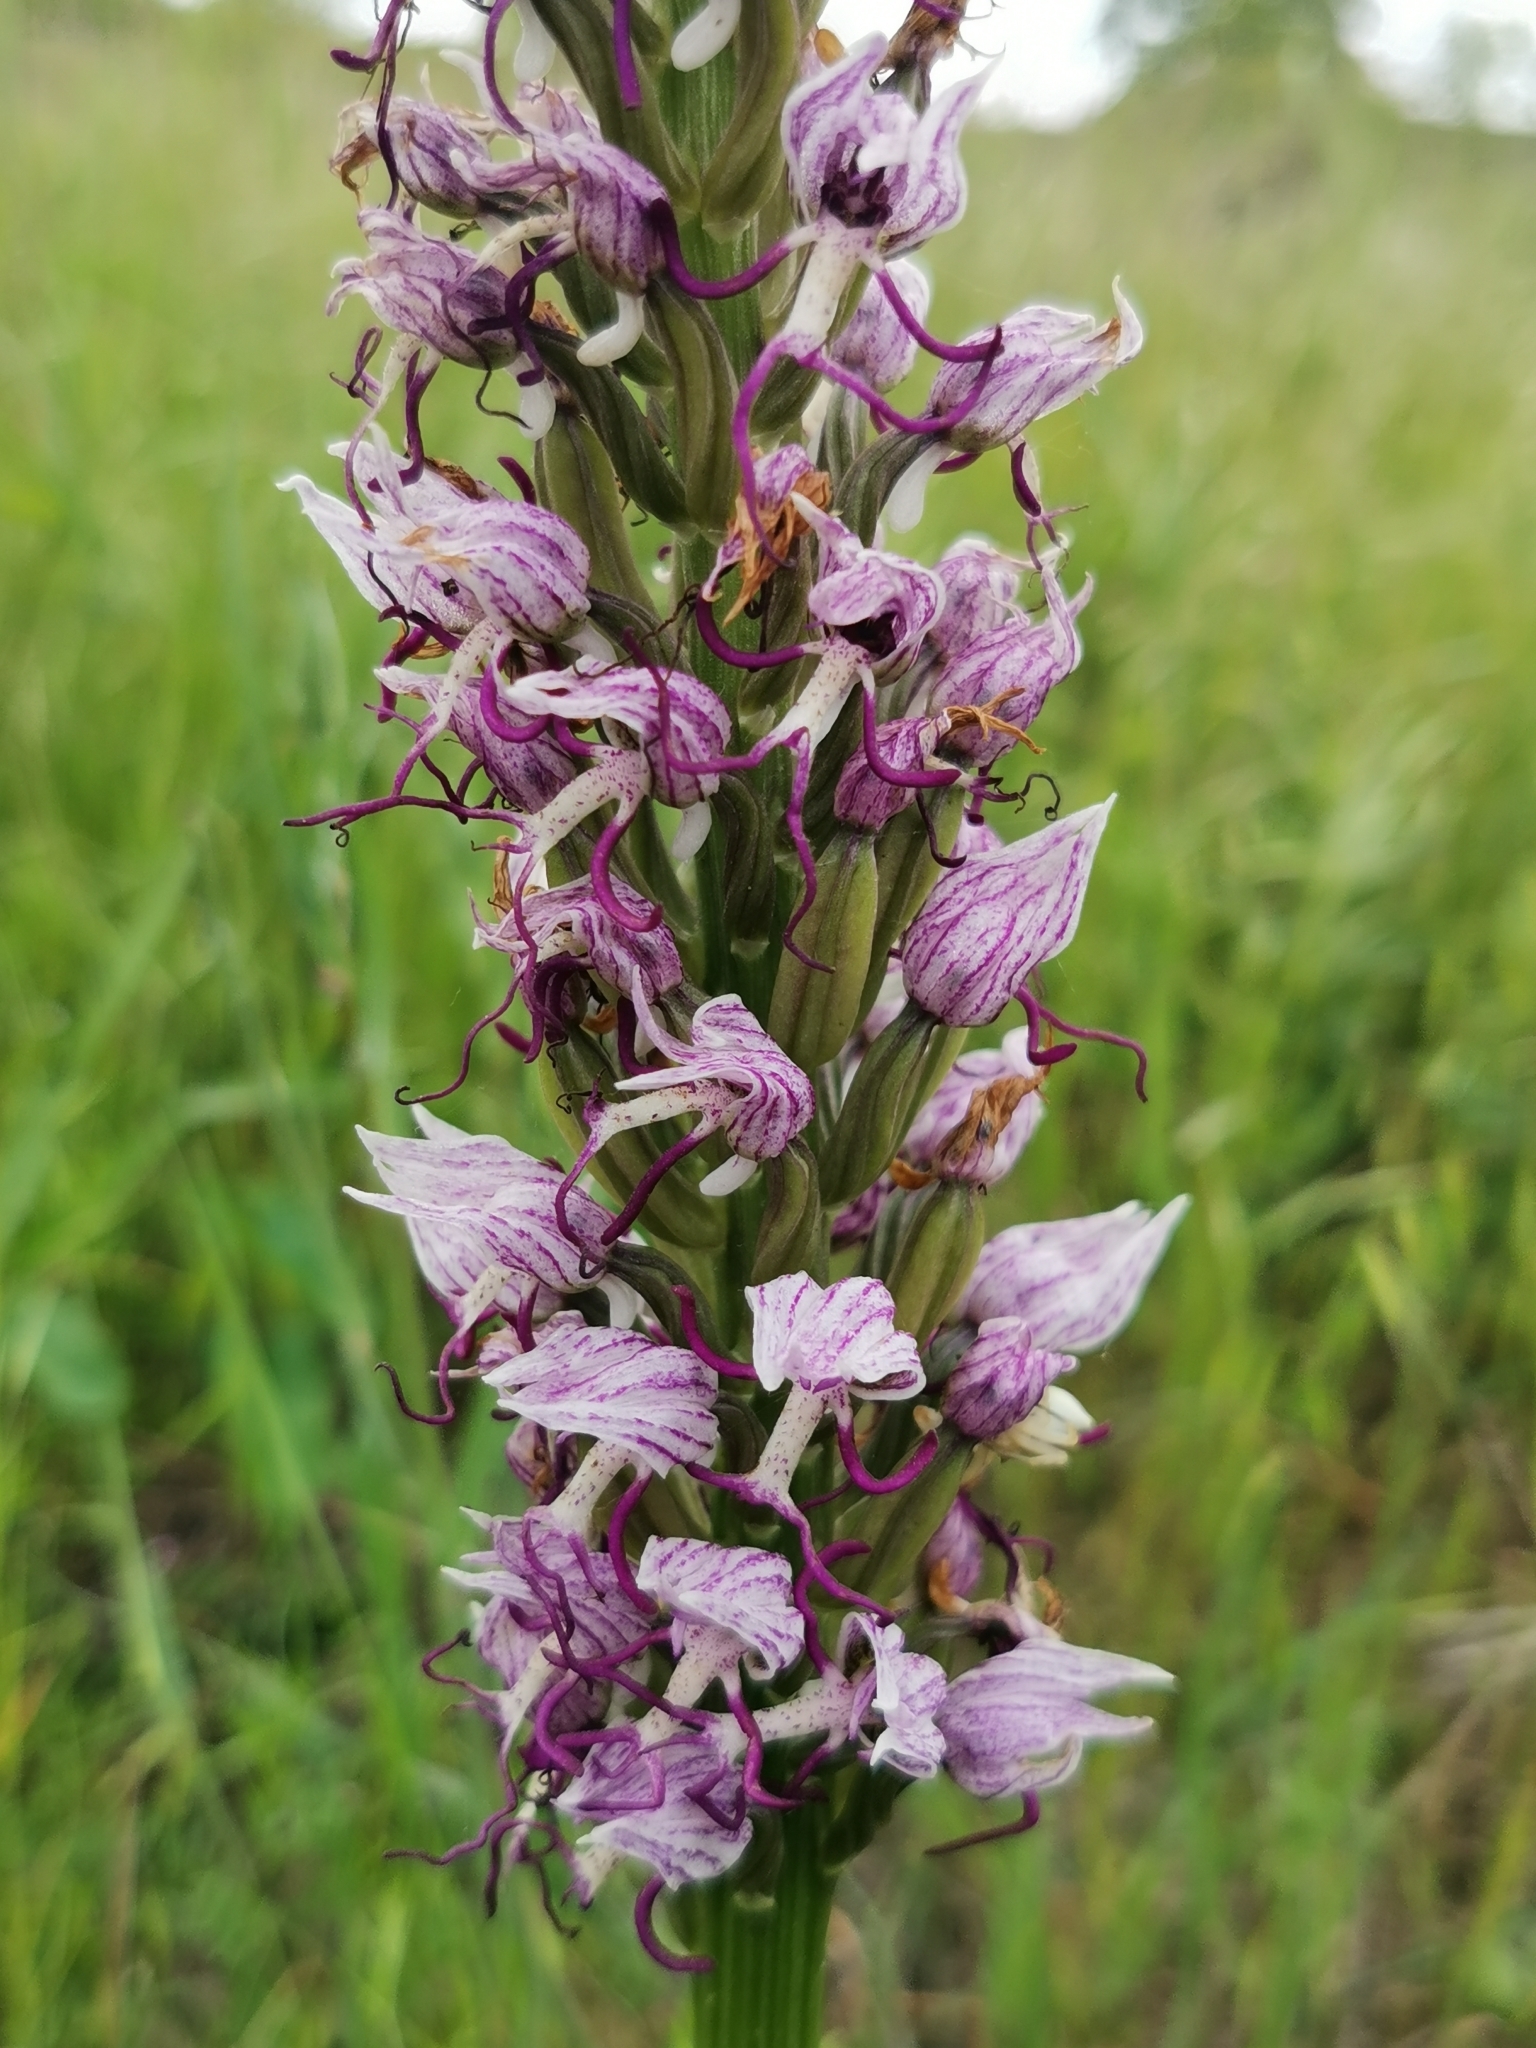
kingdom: Plantae
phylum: Tracheophyta
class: Liliopsida
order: Asparagales
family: Orchidaceae
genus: Orchis
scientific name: Orchis simia
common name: Monkey orchid
